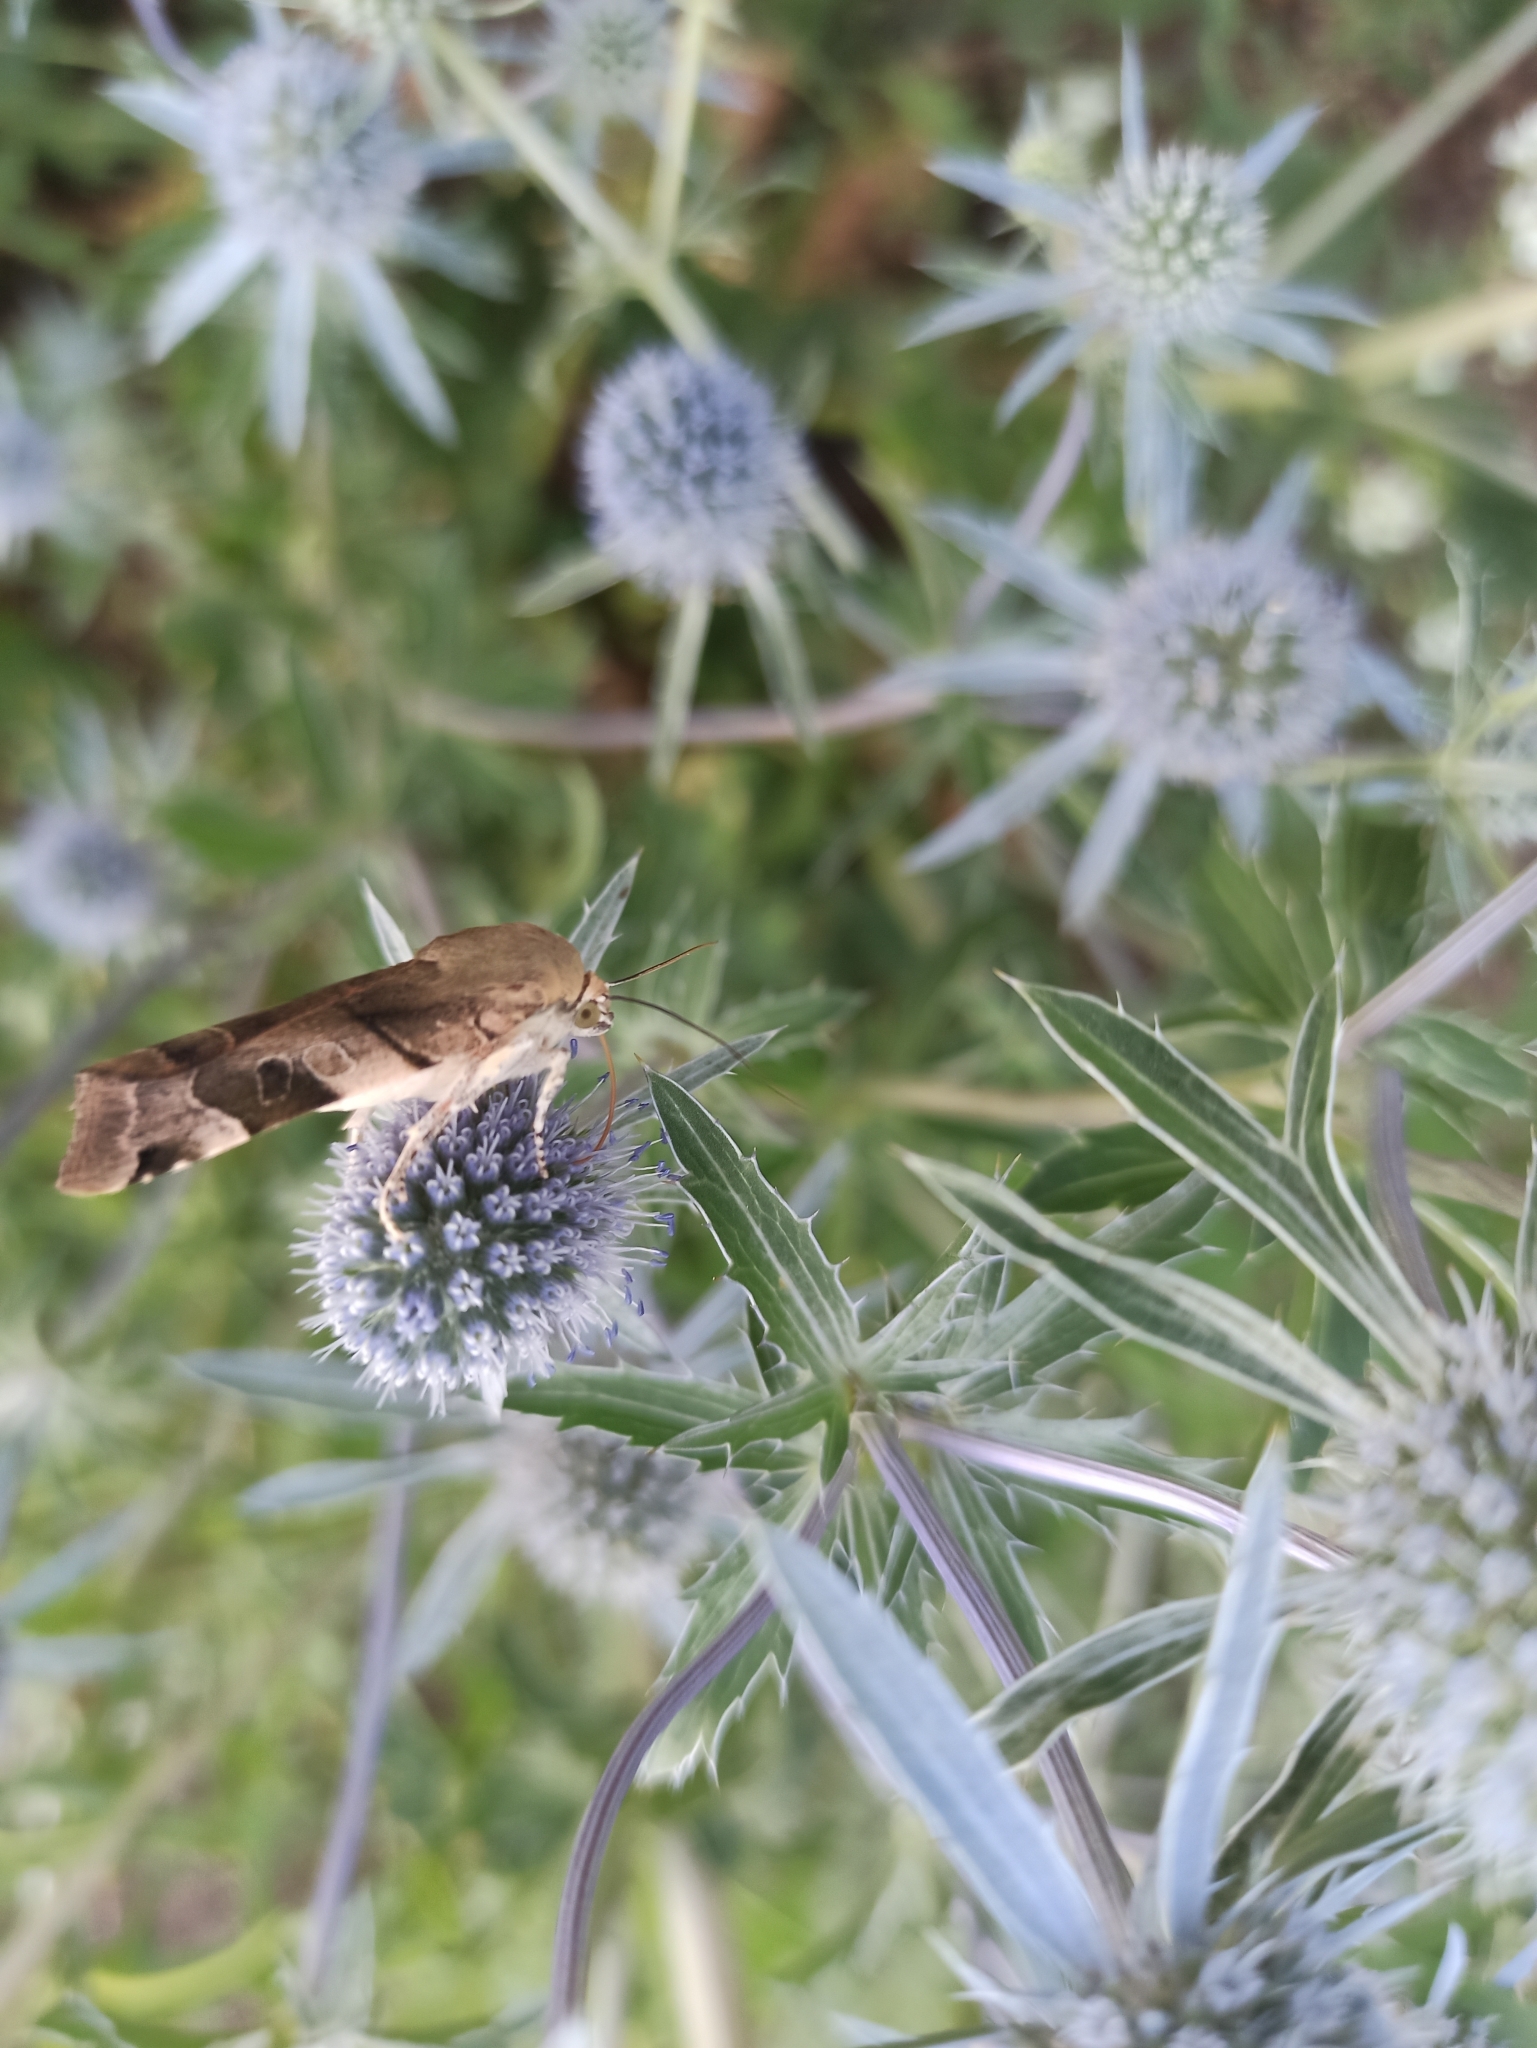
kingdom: Animalia
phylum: Arthropoda
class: Insecta
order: Lepidoptera
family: Noctuidae
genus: Noctua
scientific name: Noctua fimbriata
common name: Broad-bordered yellow underwing
